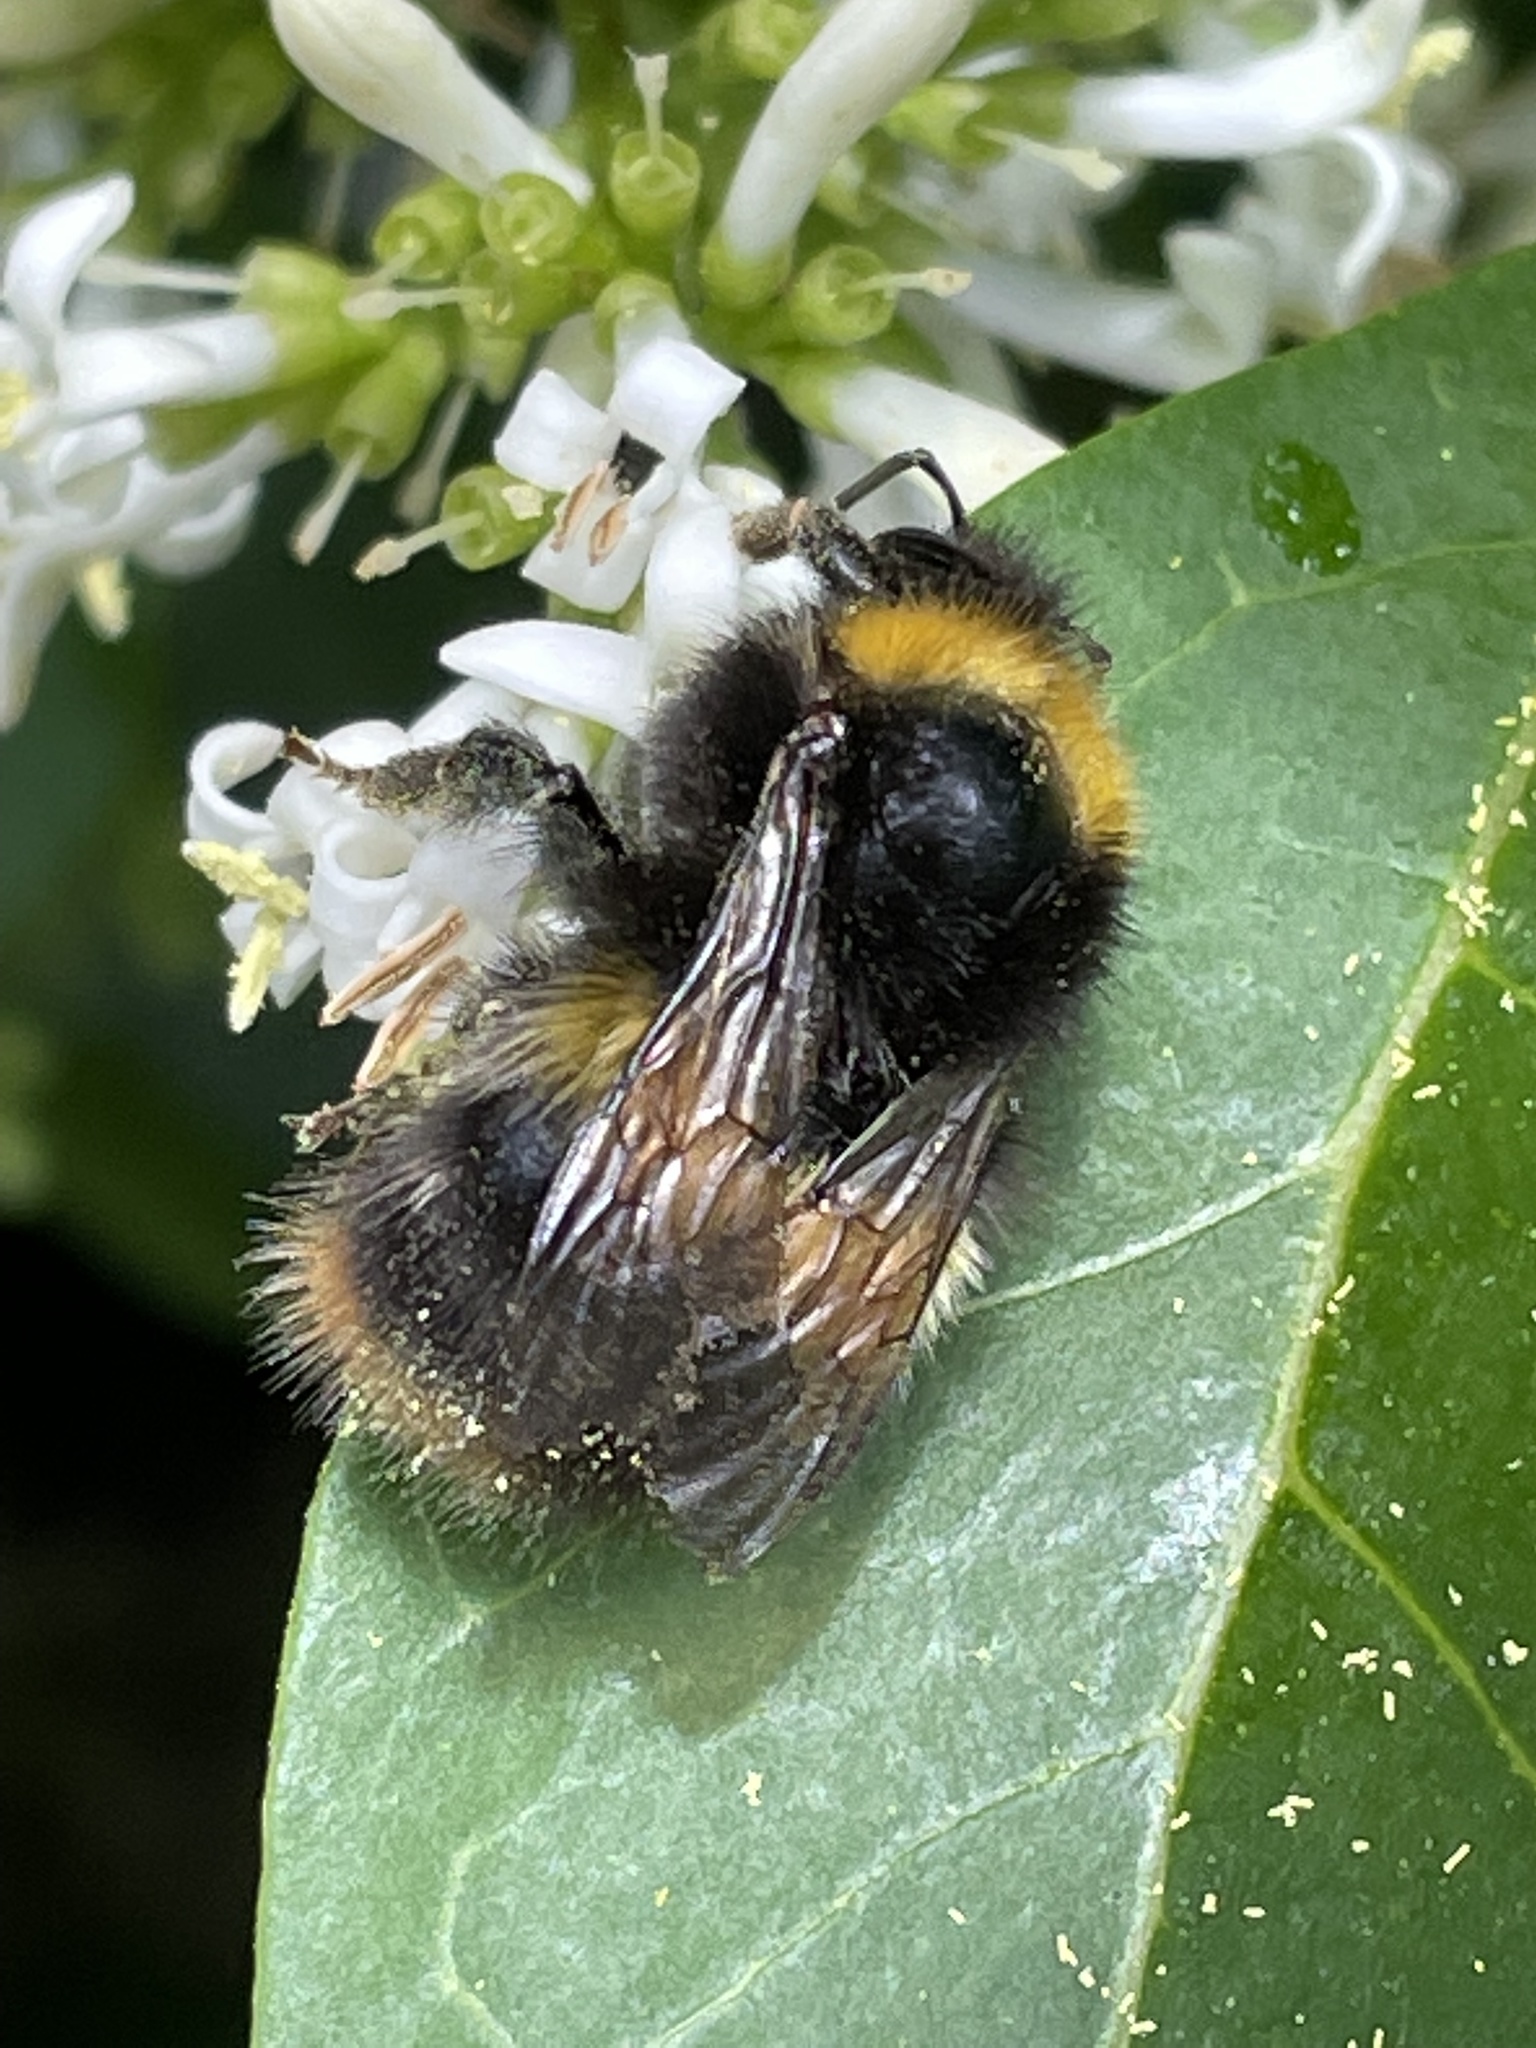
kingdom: Animalia
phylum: Arthropoda
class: Insecta
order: Hymenoptera
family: Apidae
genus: Bombus
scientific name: Bombus pratorum
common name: Early humble-bee
